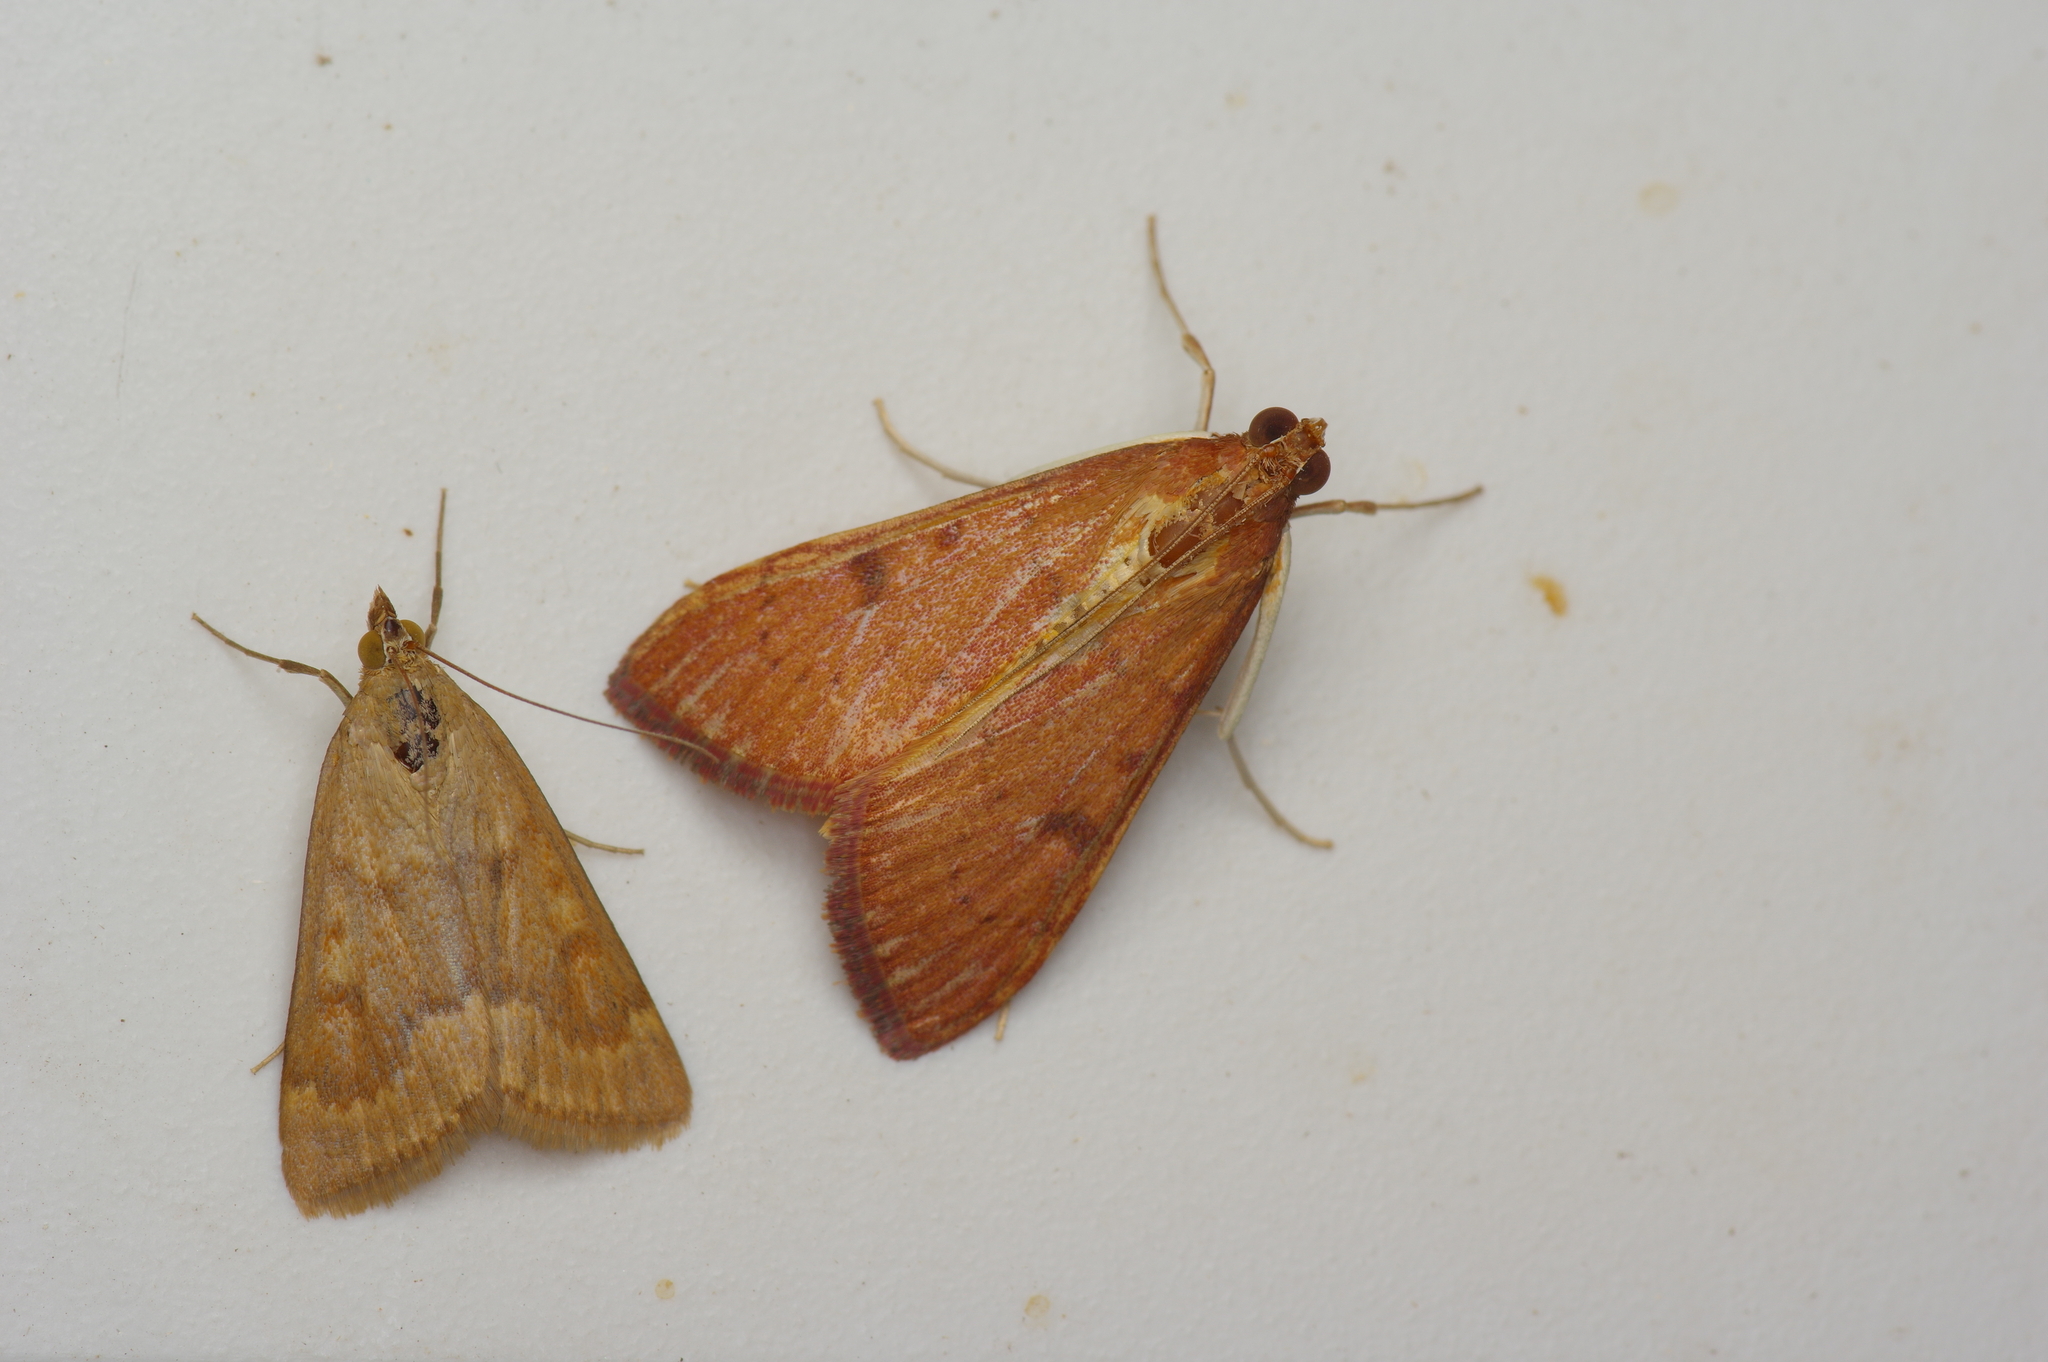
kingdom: Animalia
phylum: Arthropoda
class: Insecta
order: Lepidoptera
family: Crambidae
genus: Uresiphita
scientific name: Uresiphita reversalis
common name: Genista broom moth
